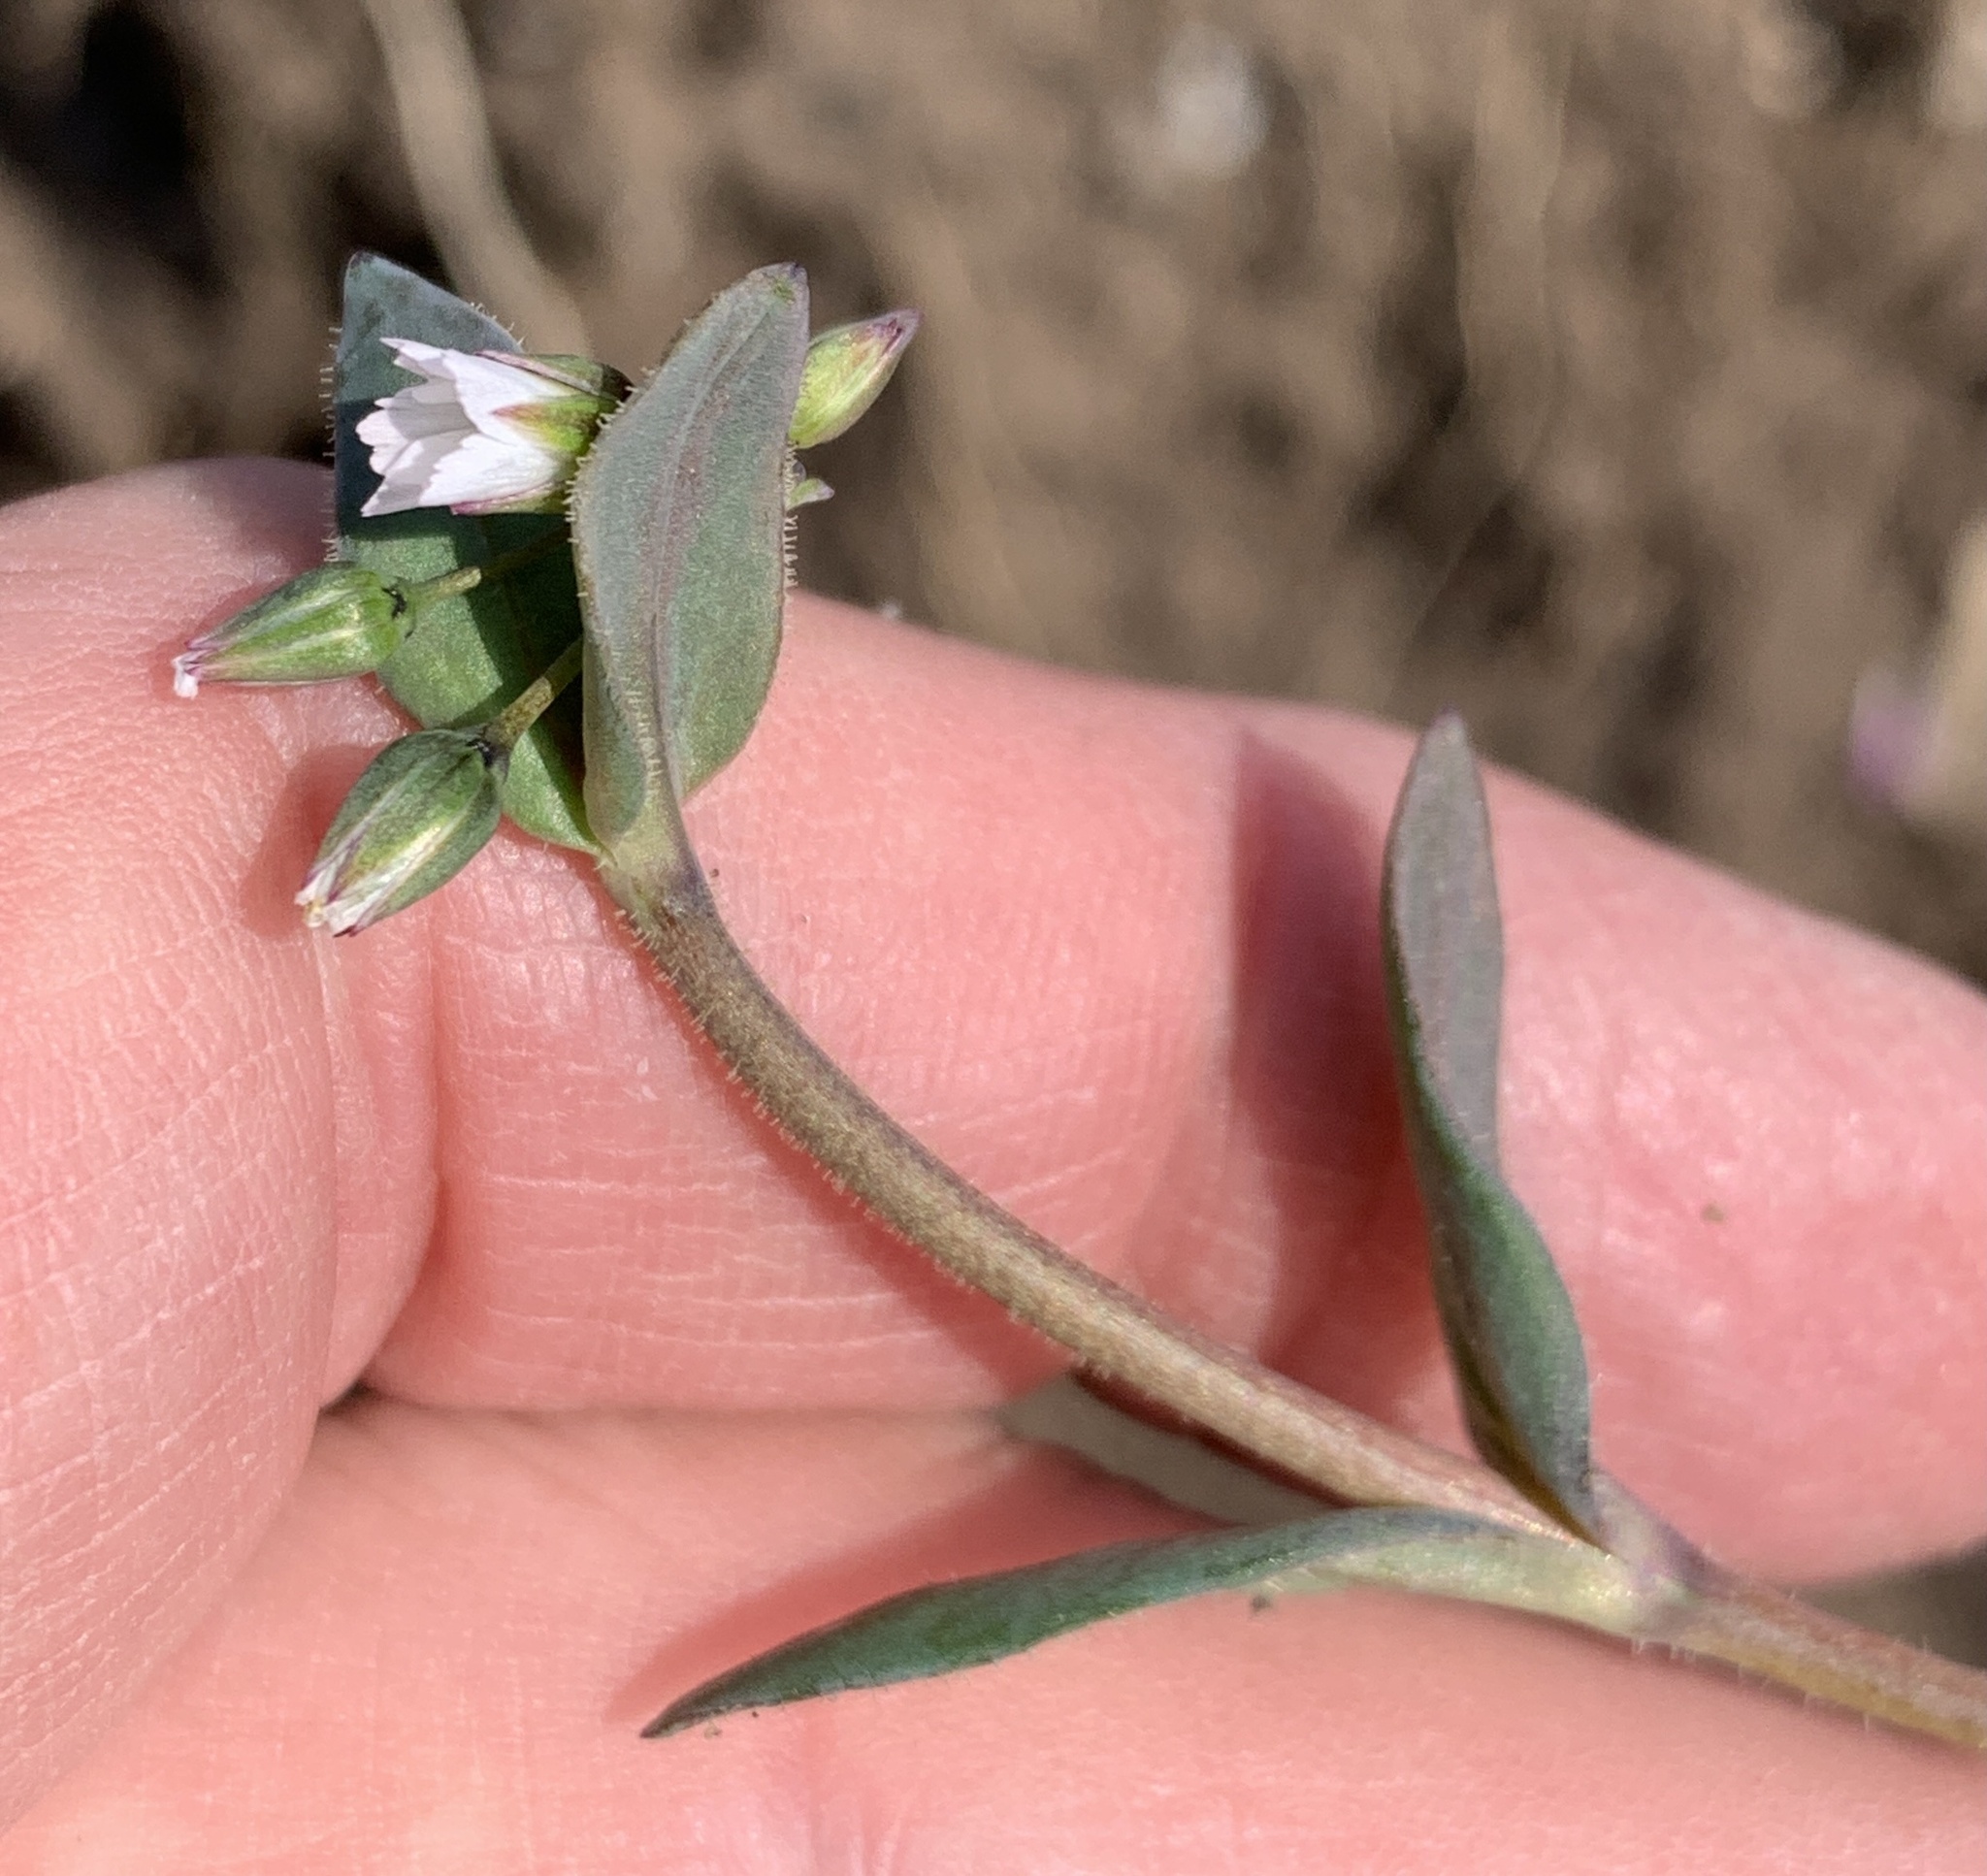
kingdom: Plantae
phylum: Tracheophyta
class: Magnoliopsida
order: Caryophyllales
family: Caryophyllaceae
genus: Holosteum
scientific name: Holosteum umbellatum
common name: Jagged chickweed
